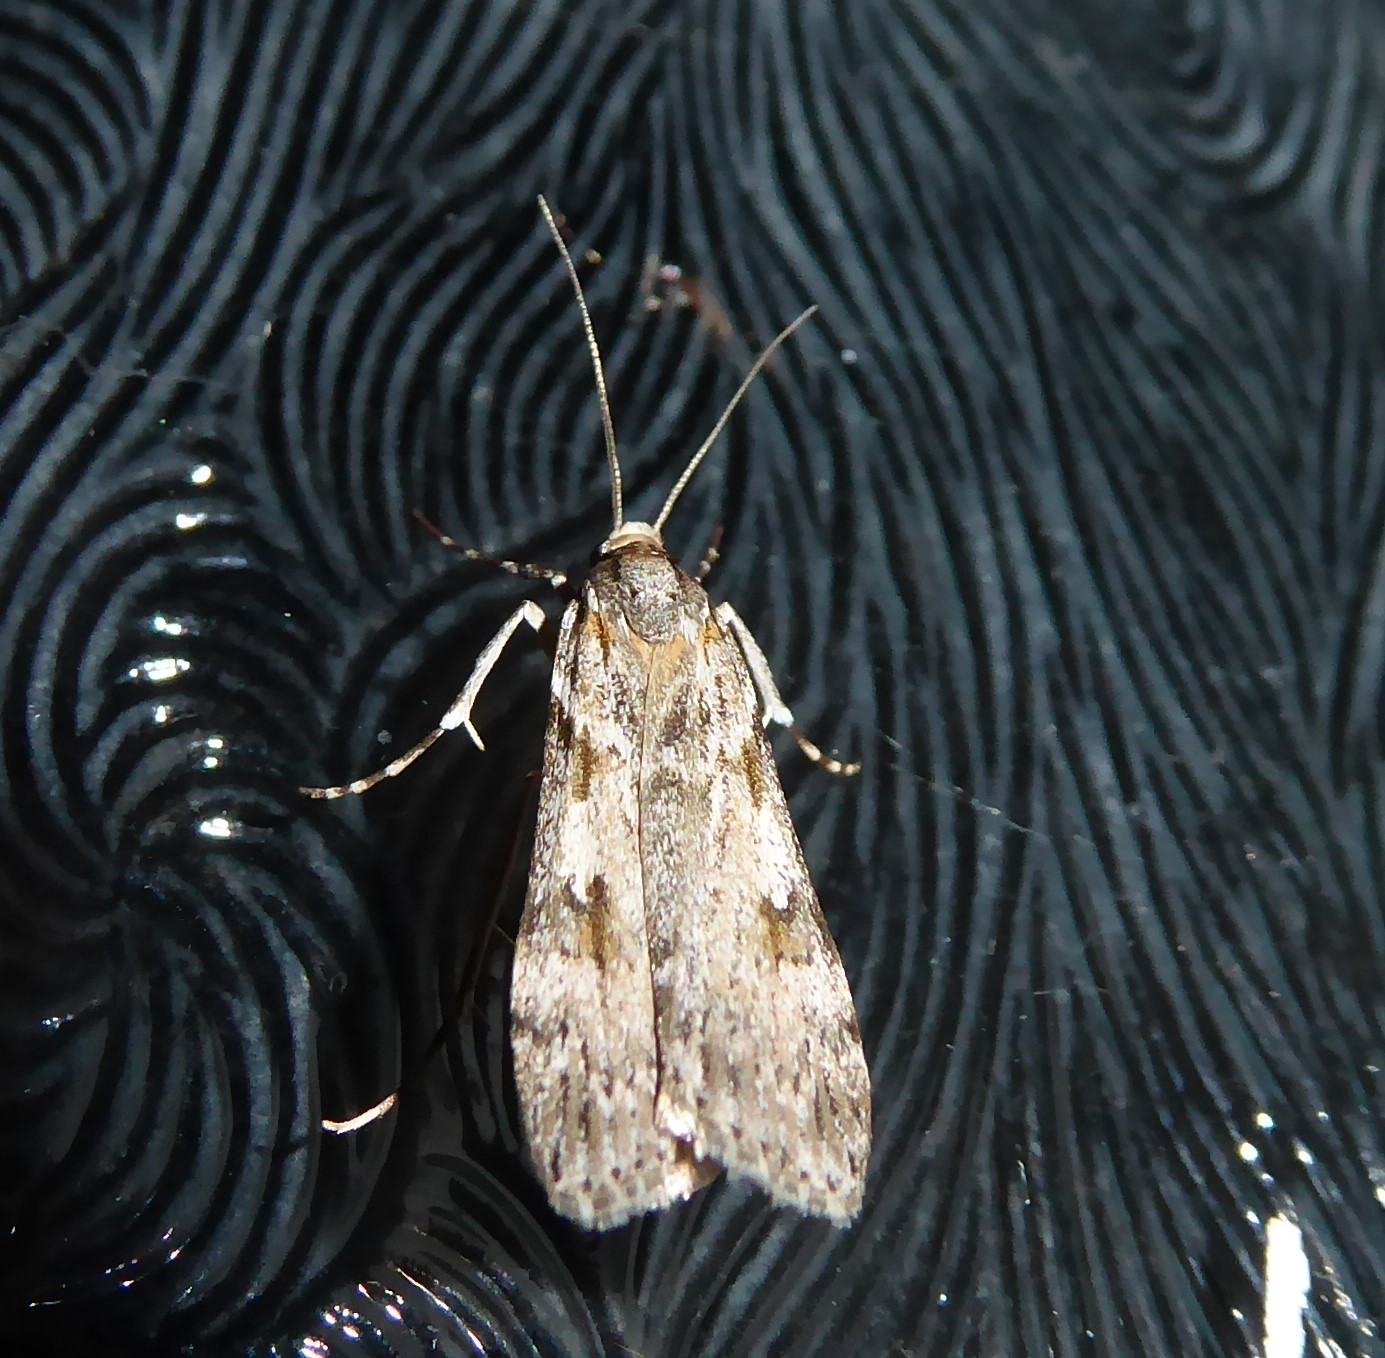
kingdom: Animalia
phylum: Arthropoda
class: Insecta
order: Lepidoptera
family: Crambidae
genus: Scoparia
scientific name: Scoparia halopis
